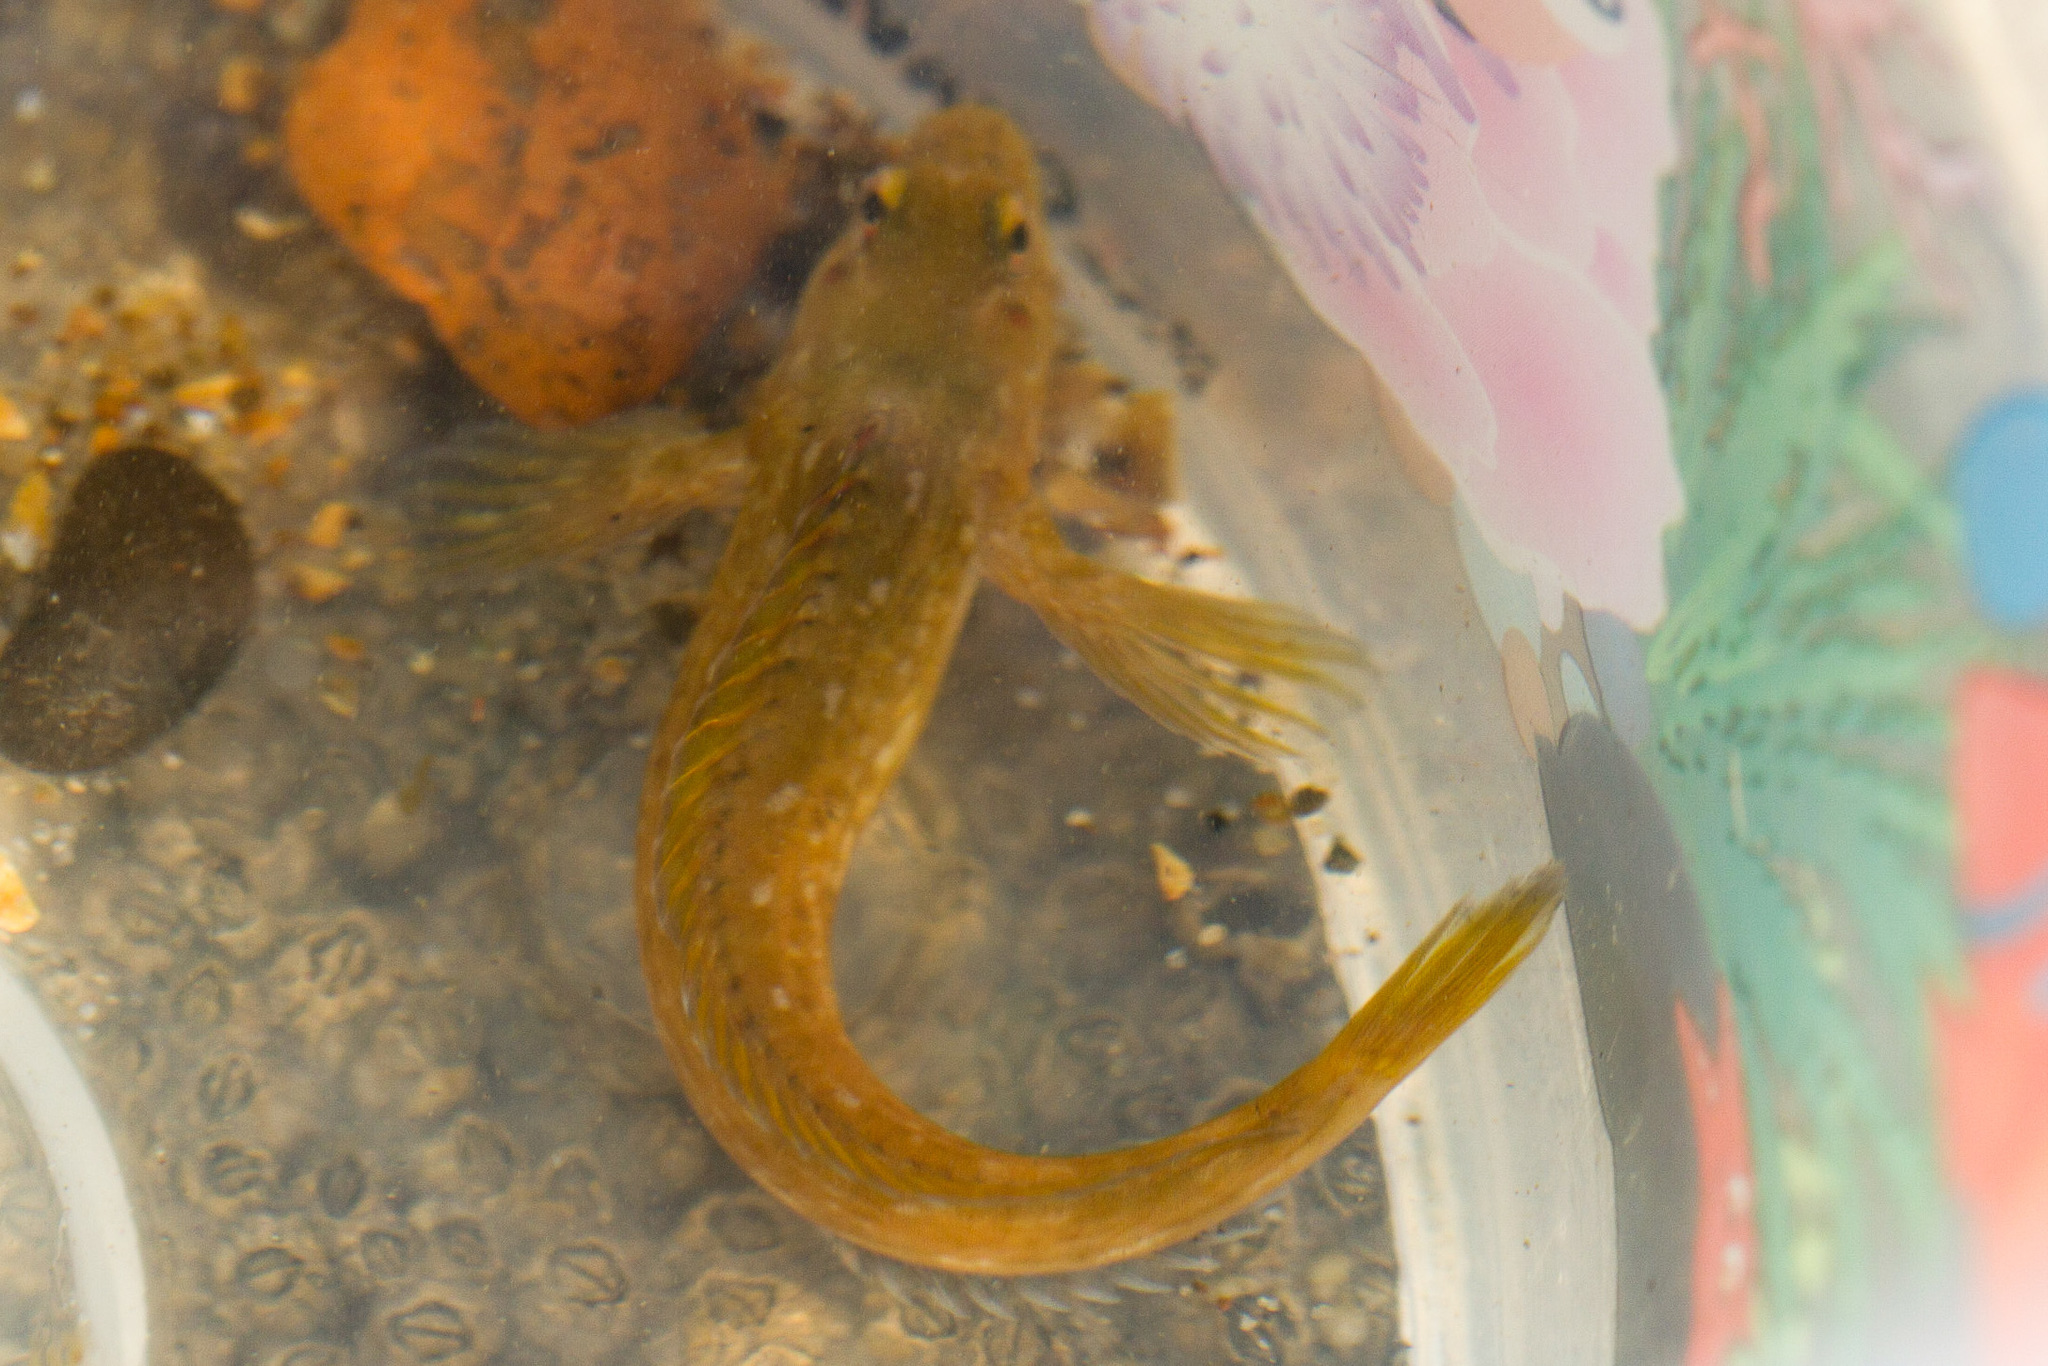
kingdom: Animalia
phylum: Chordata
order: Perciformes
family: Blenniidae
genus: Lipophrys
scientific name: Lipophrys pholis
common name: Shanny
